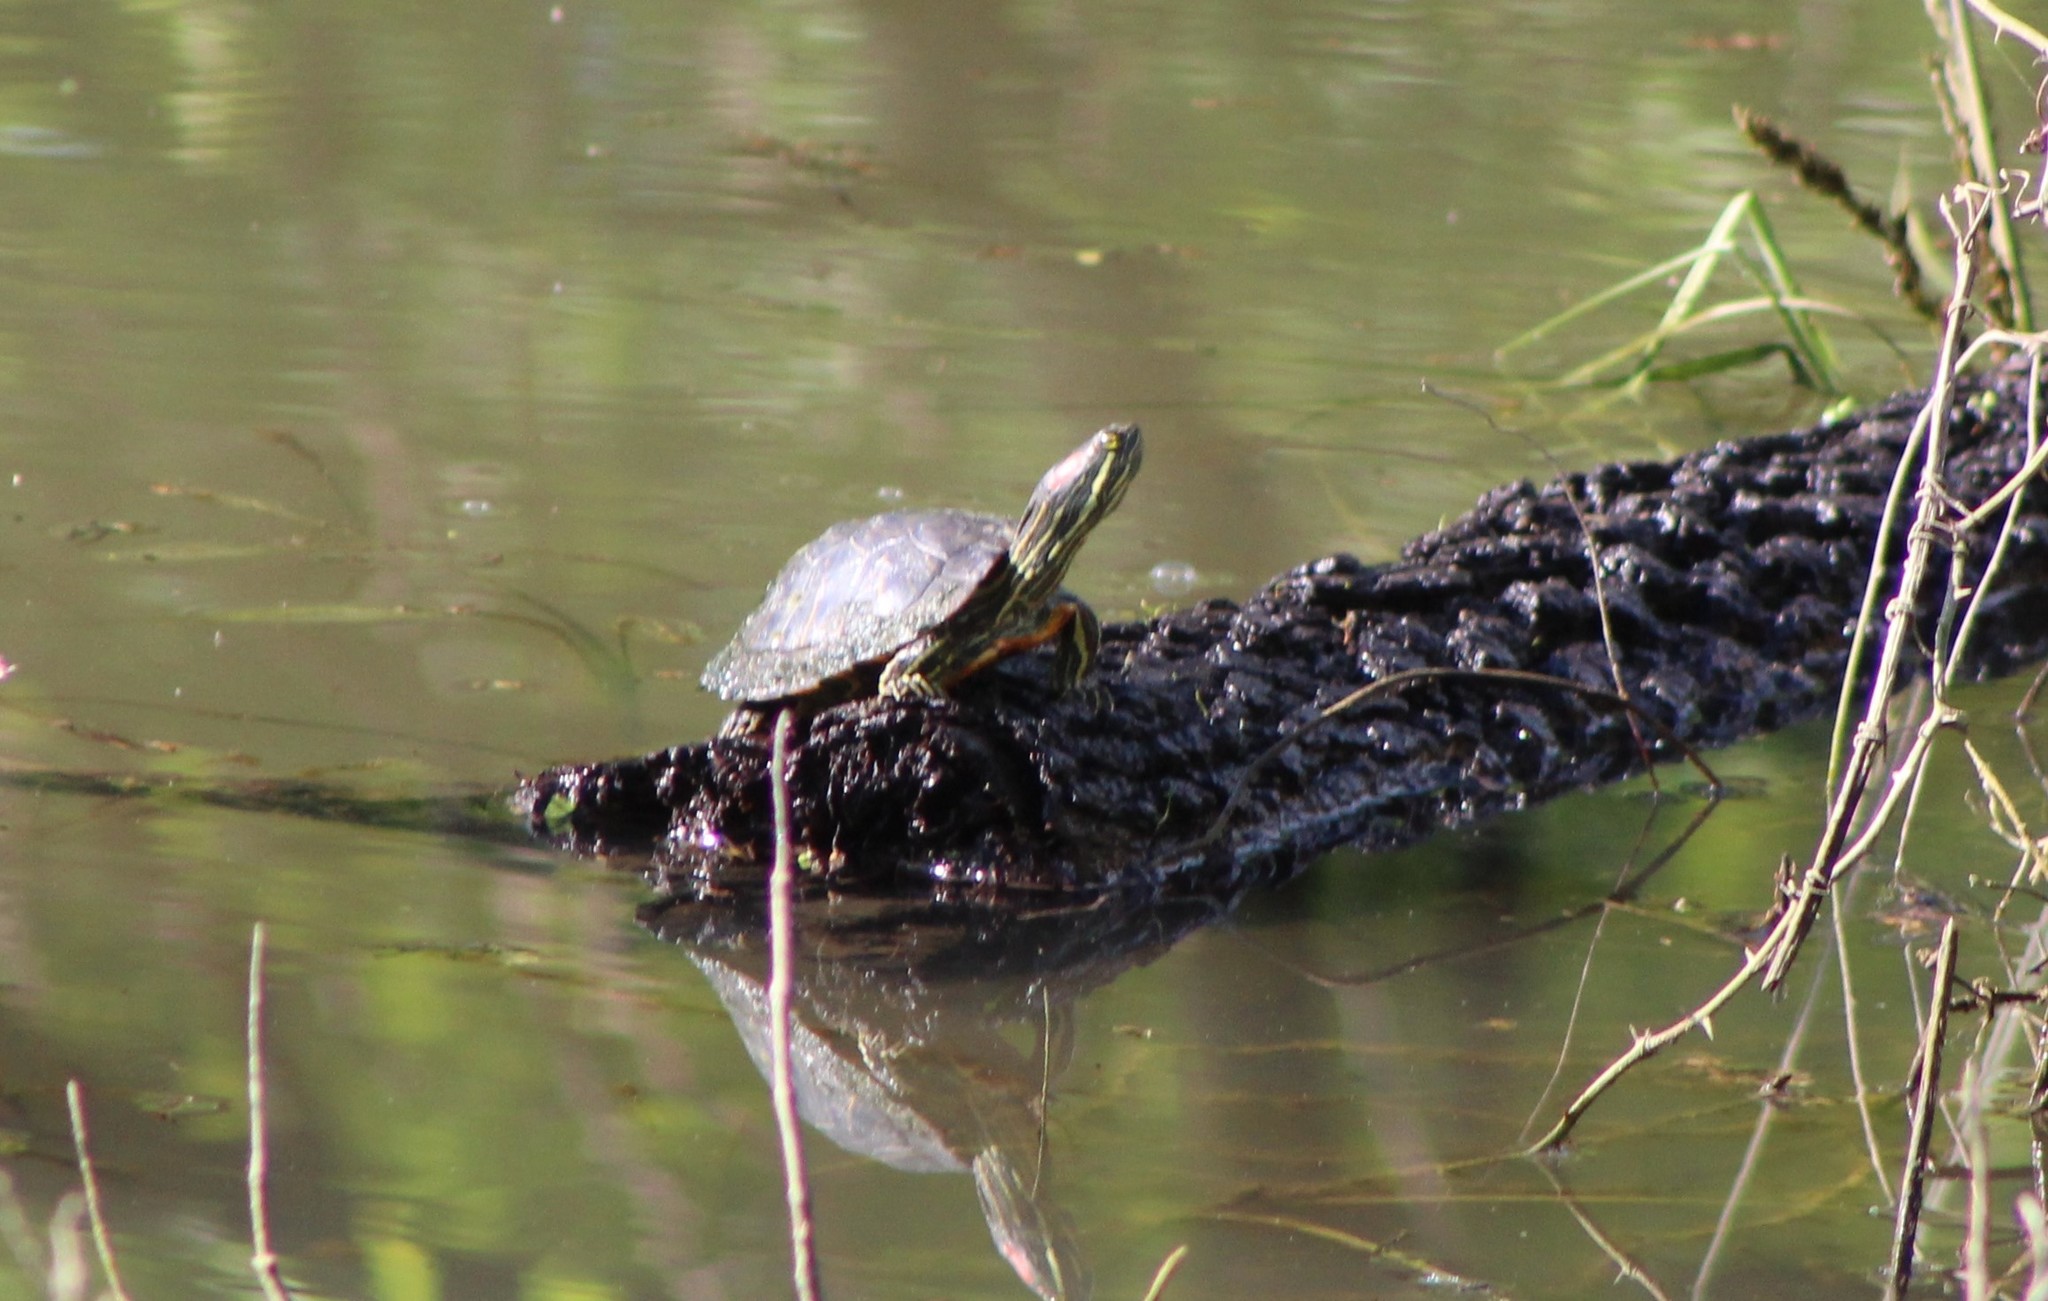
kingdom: Animalia
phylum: Chordata
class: Testudines
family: Emydidae
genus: Trachemys
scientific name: Trachemys scripta
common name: Slider
